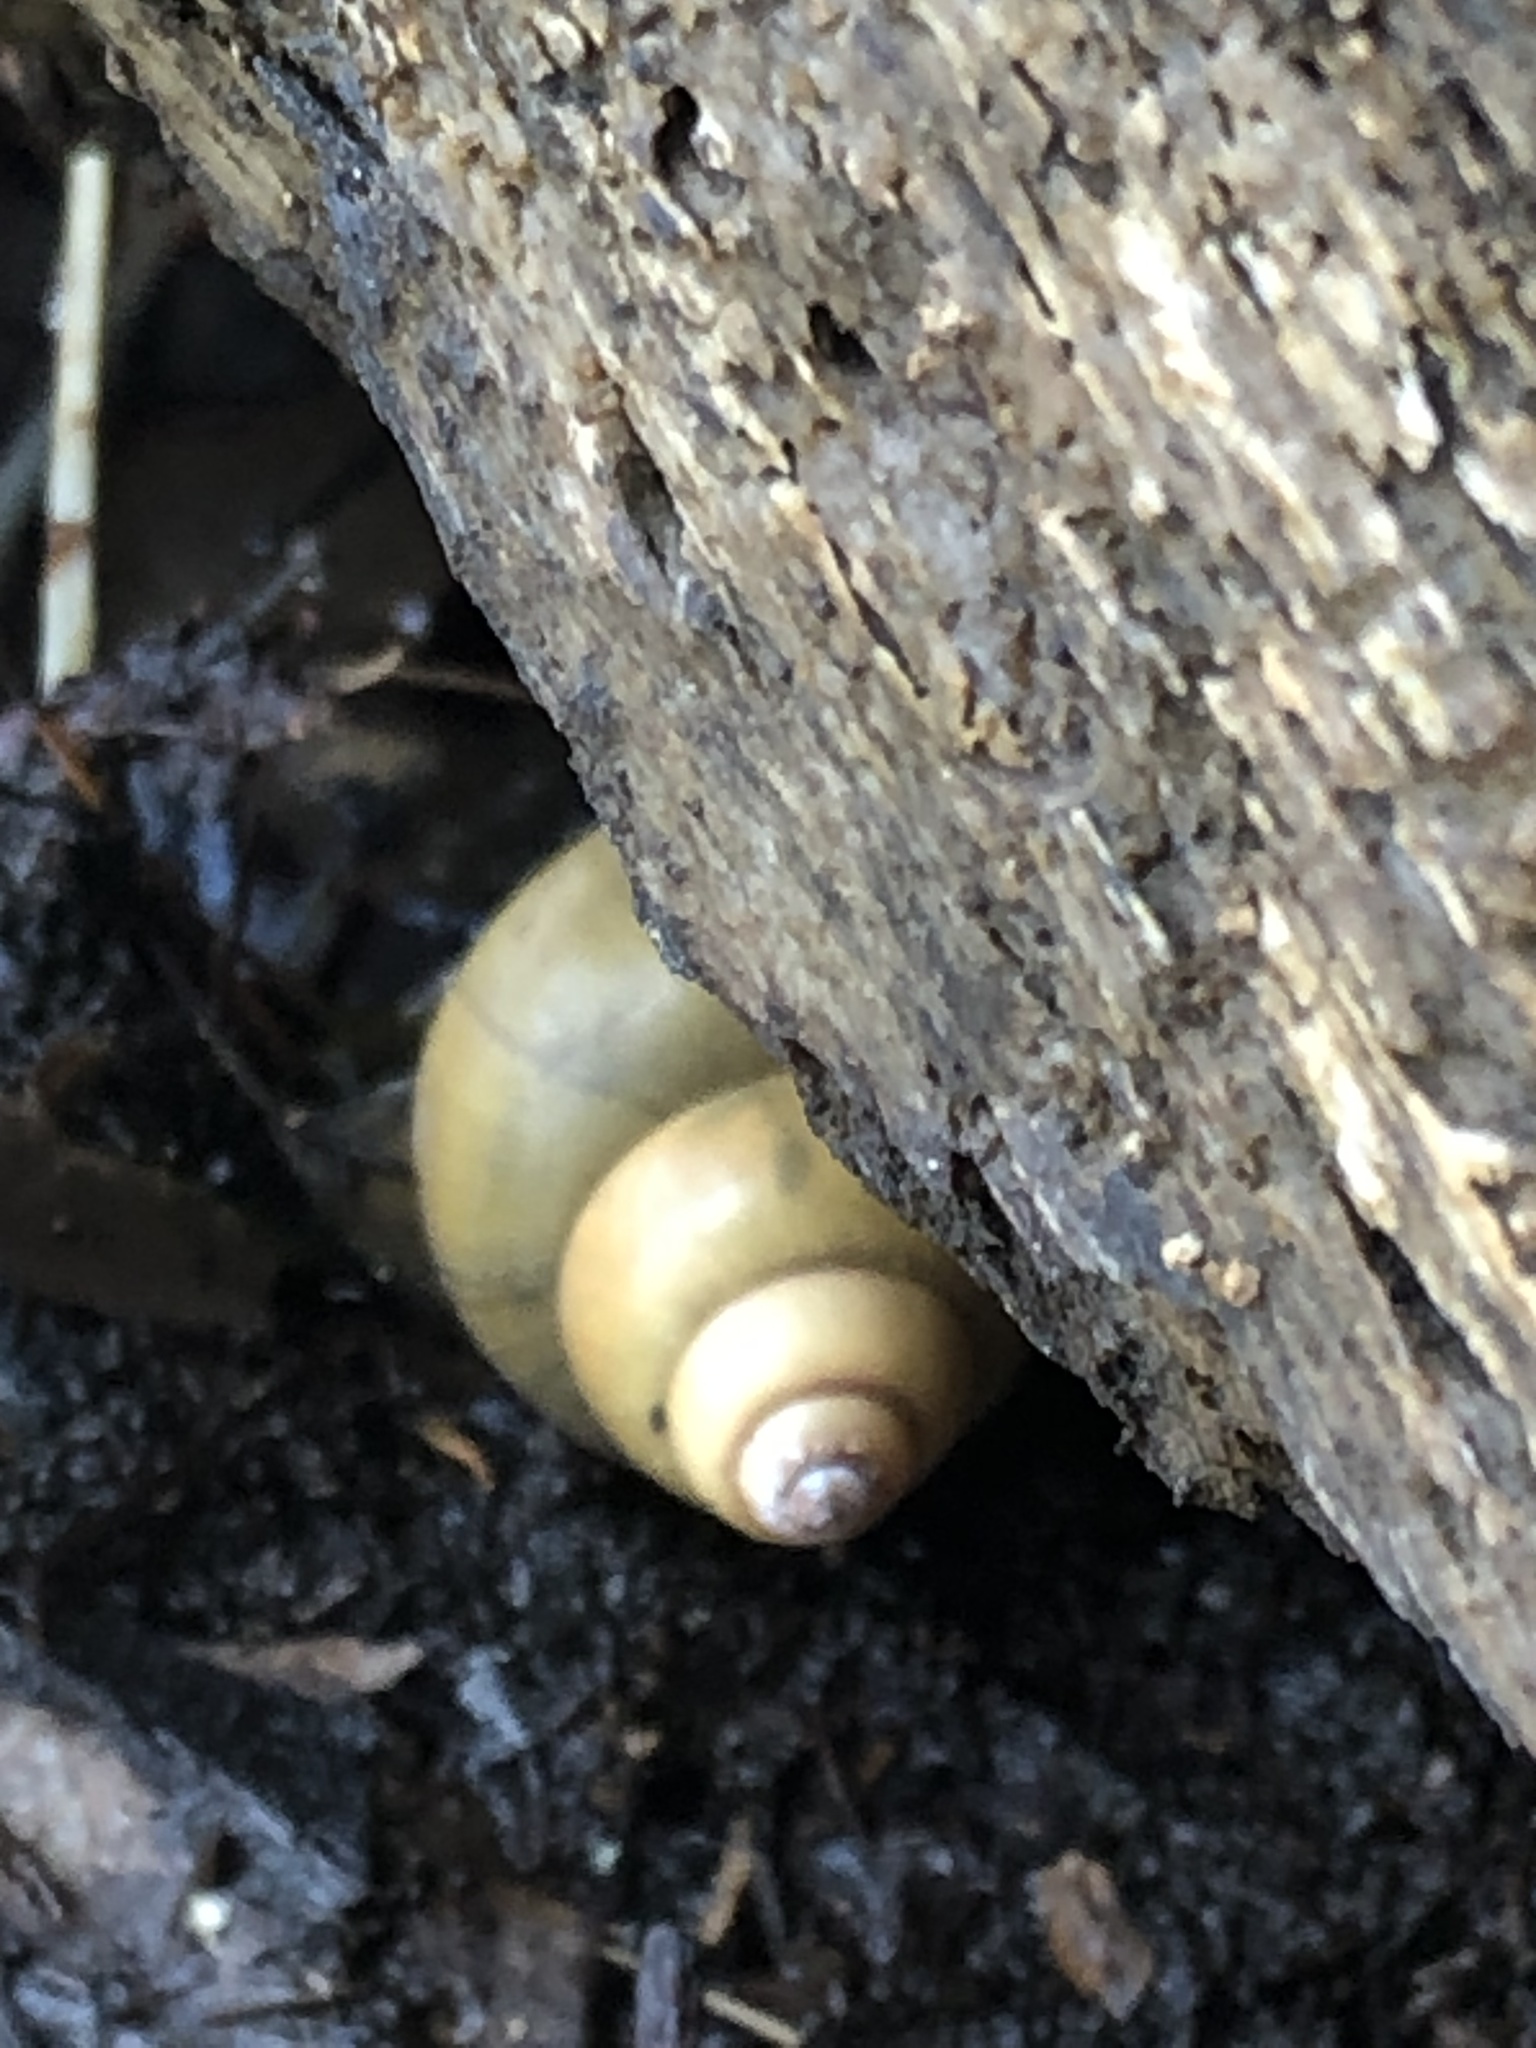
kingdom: Animalia
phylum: Mollusca
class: Gastropoda
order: Architaenioglossa
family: Viviparidae
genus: Cipangopaludina
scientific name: Cipangopaludina chinensis
